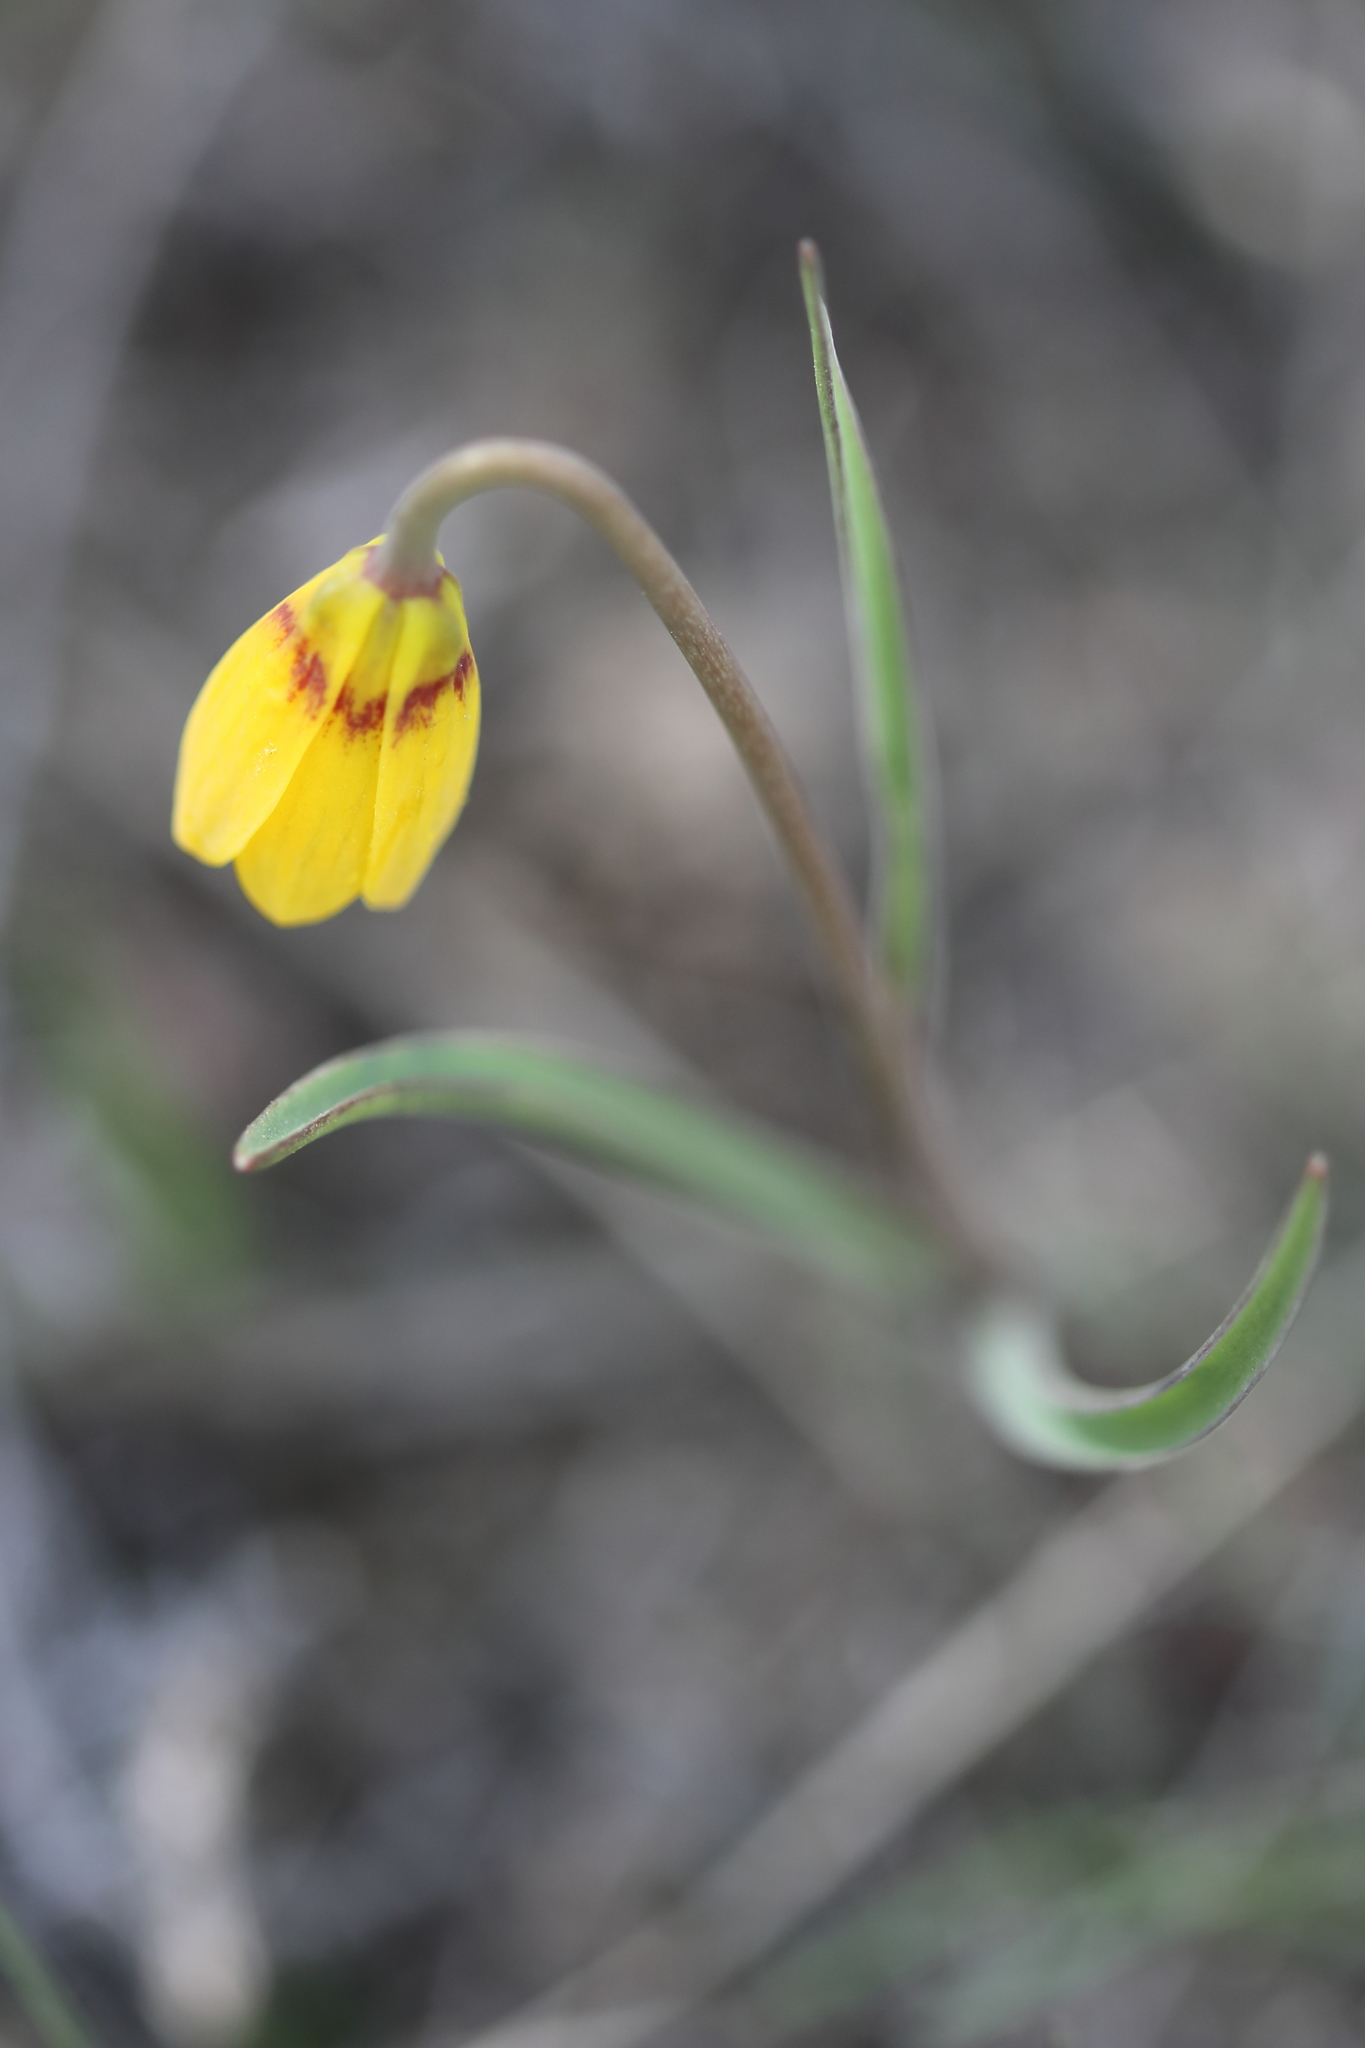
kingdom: Plantae
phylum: Tracheophyta
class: Liliopsida
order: Liliales
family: Liliaceae
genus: Fritillaria
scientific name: Fritillaria pudica
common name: Yellow fritillary
